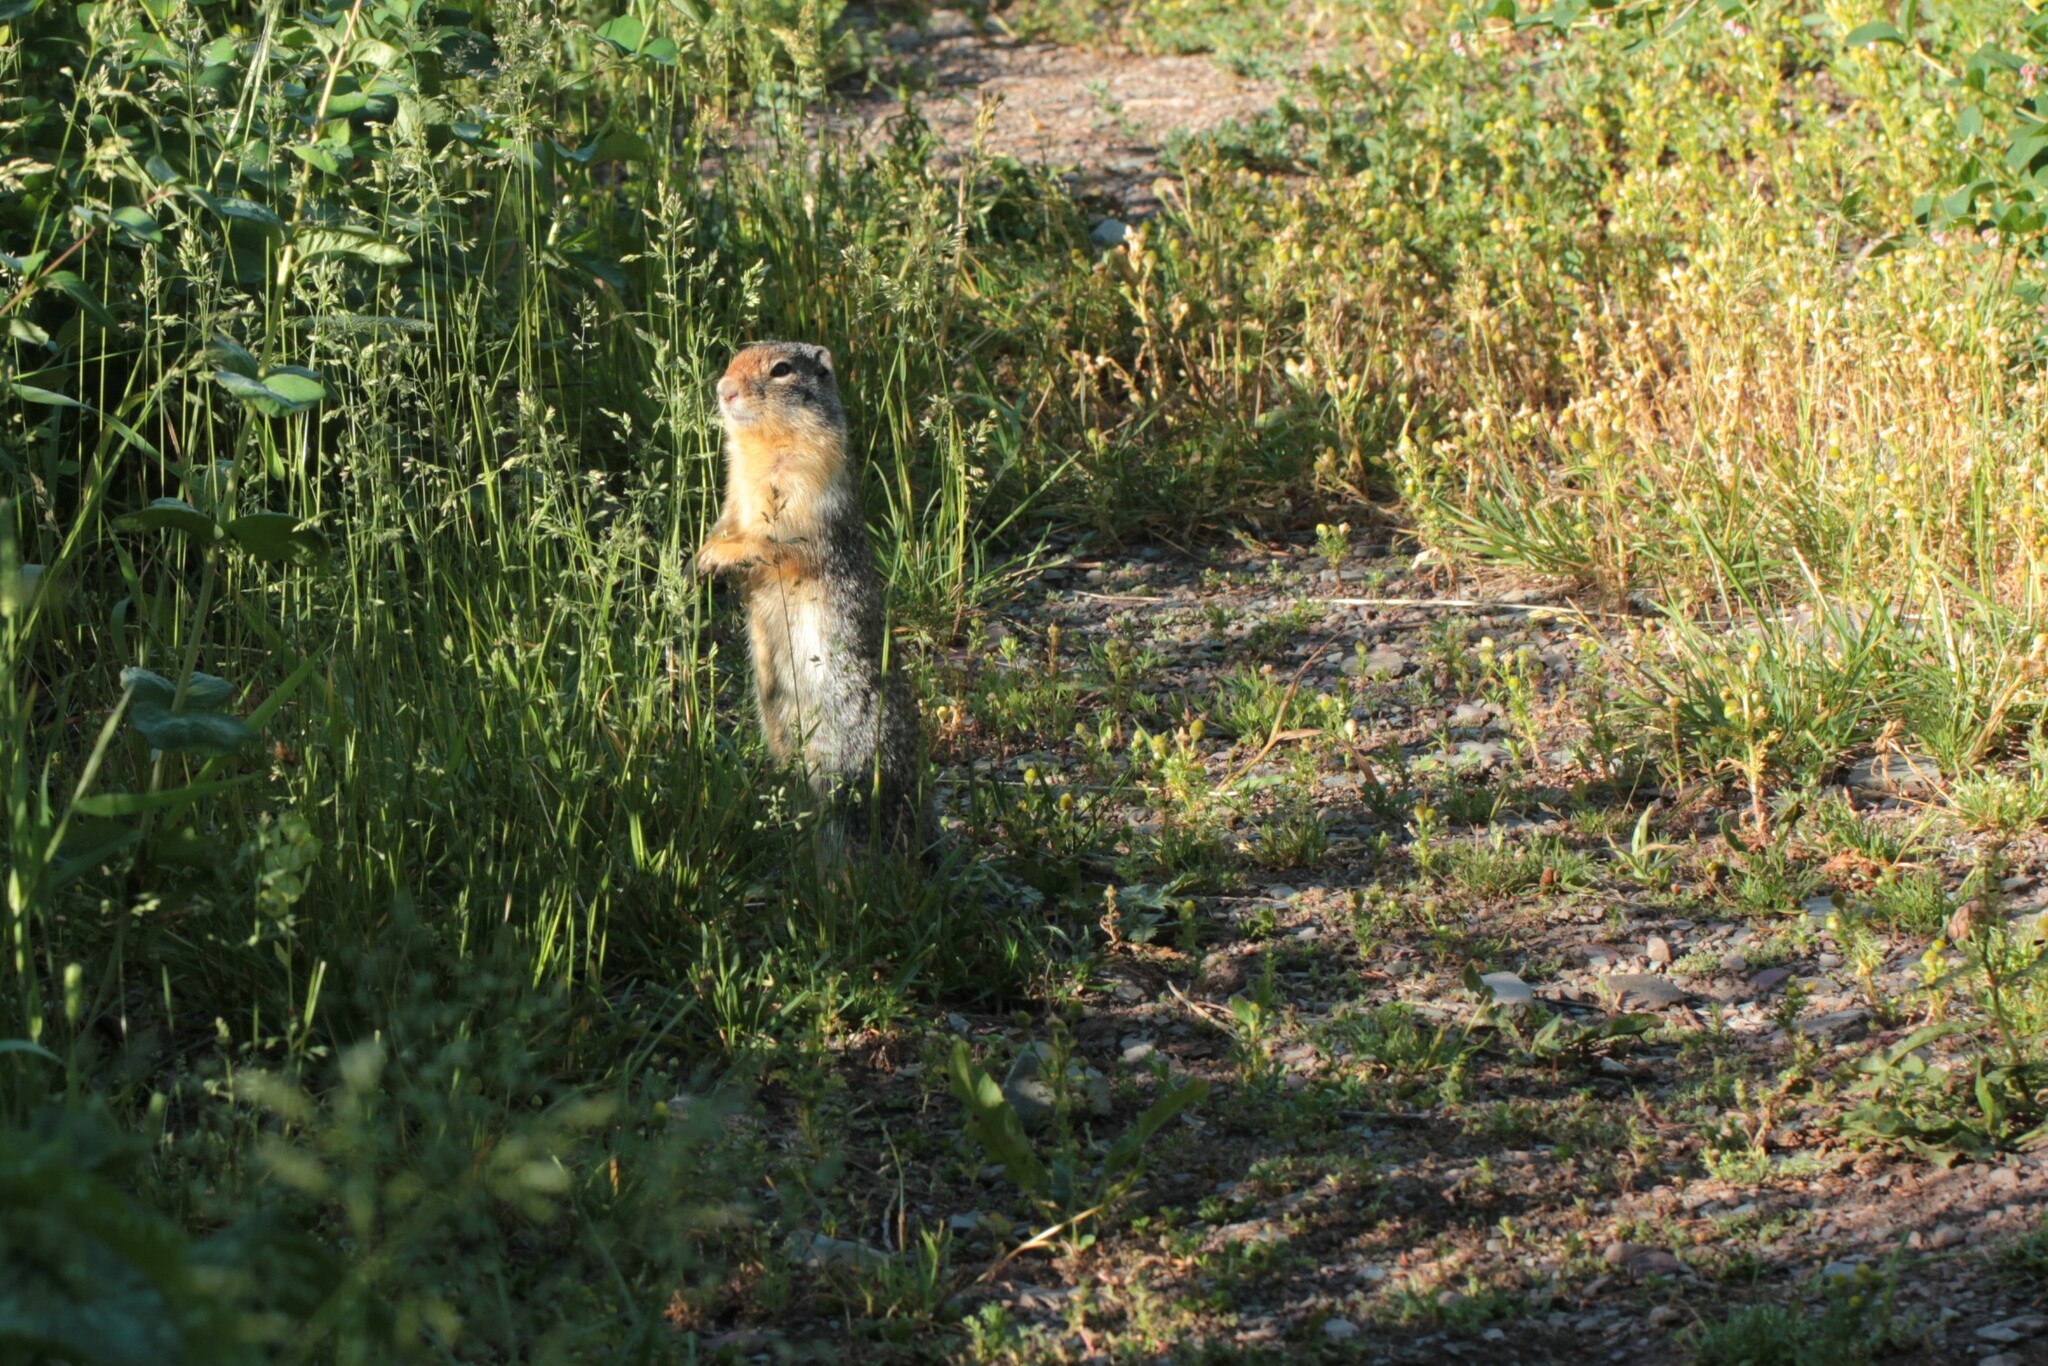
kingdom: Animalia
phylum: Chordata
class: Mammalia
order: Rodentia
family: Sciuridae
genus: Urocitellus
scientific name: Urocitellus columbianus
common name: Columbian ground squirrel
